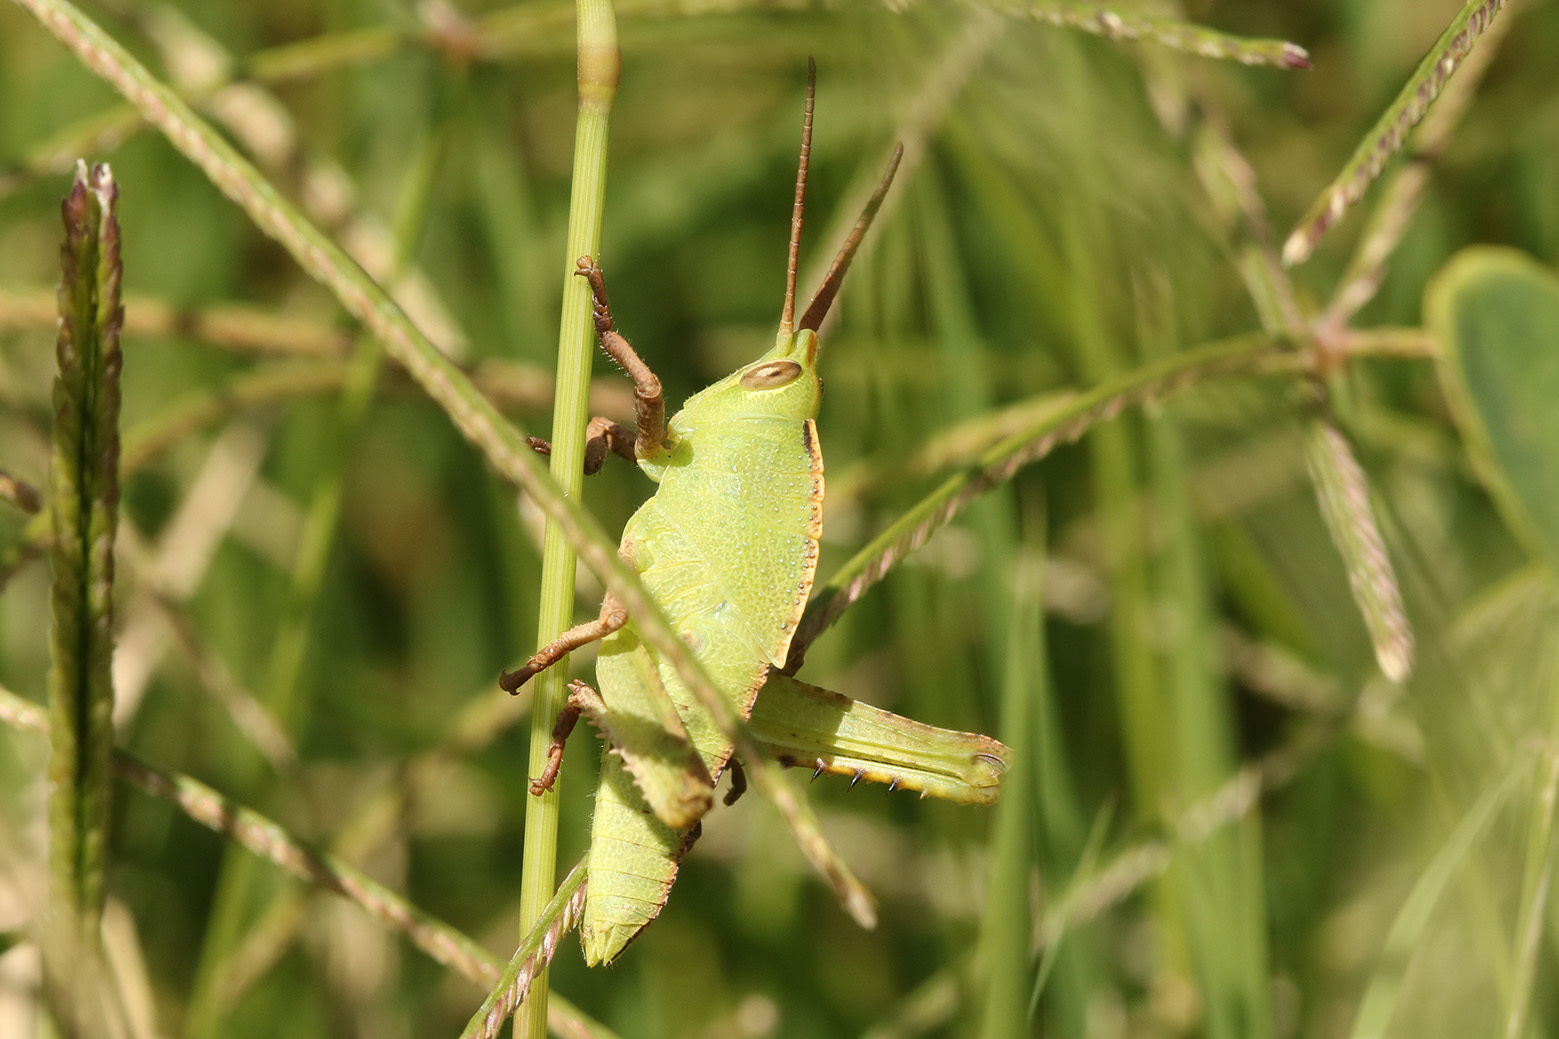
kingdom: Animalia
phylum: Arthropoda
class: Insecta
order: Orthoptera
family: Romaleidae
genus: Staleochlora
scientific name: Staleochlora viridicata
